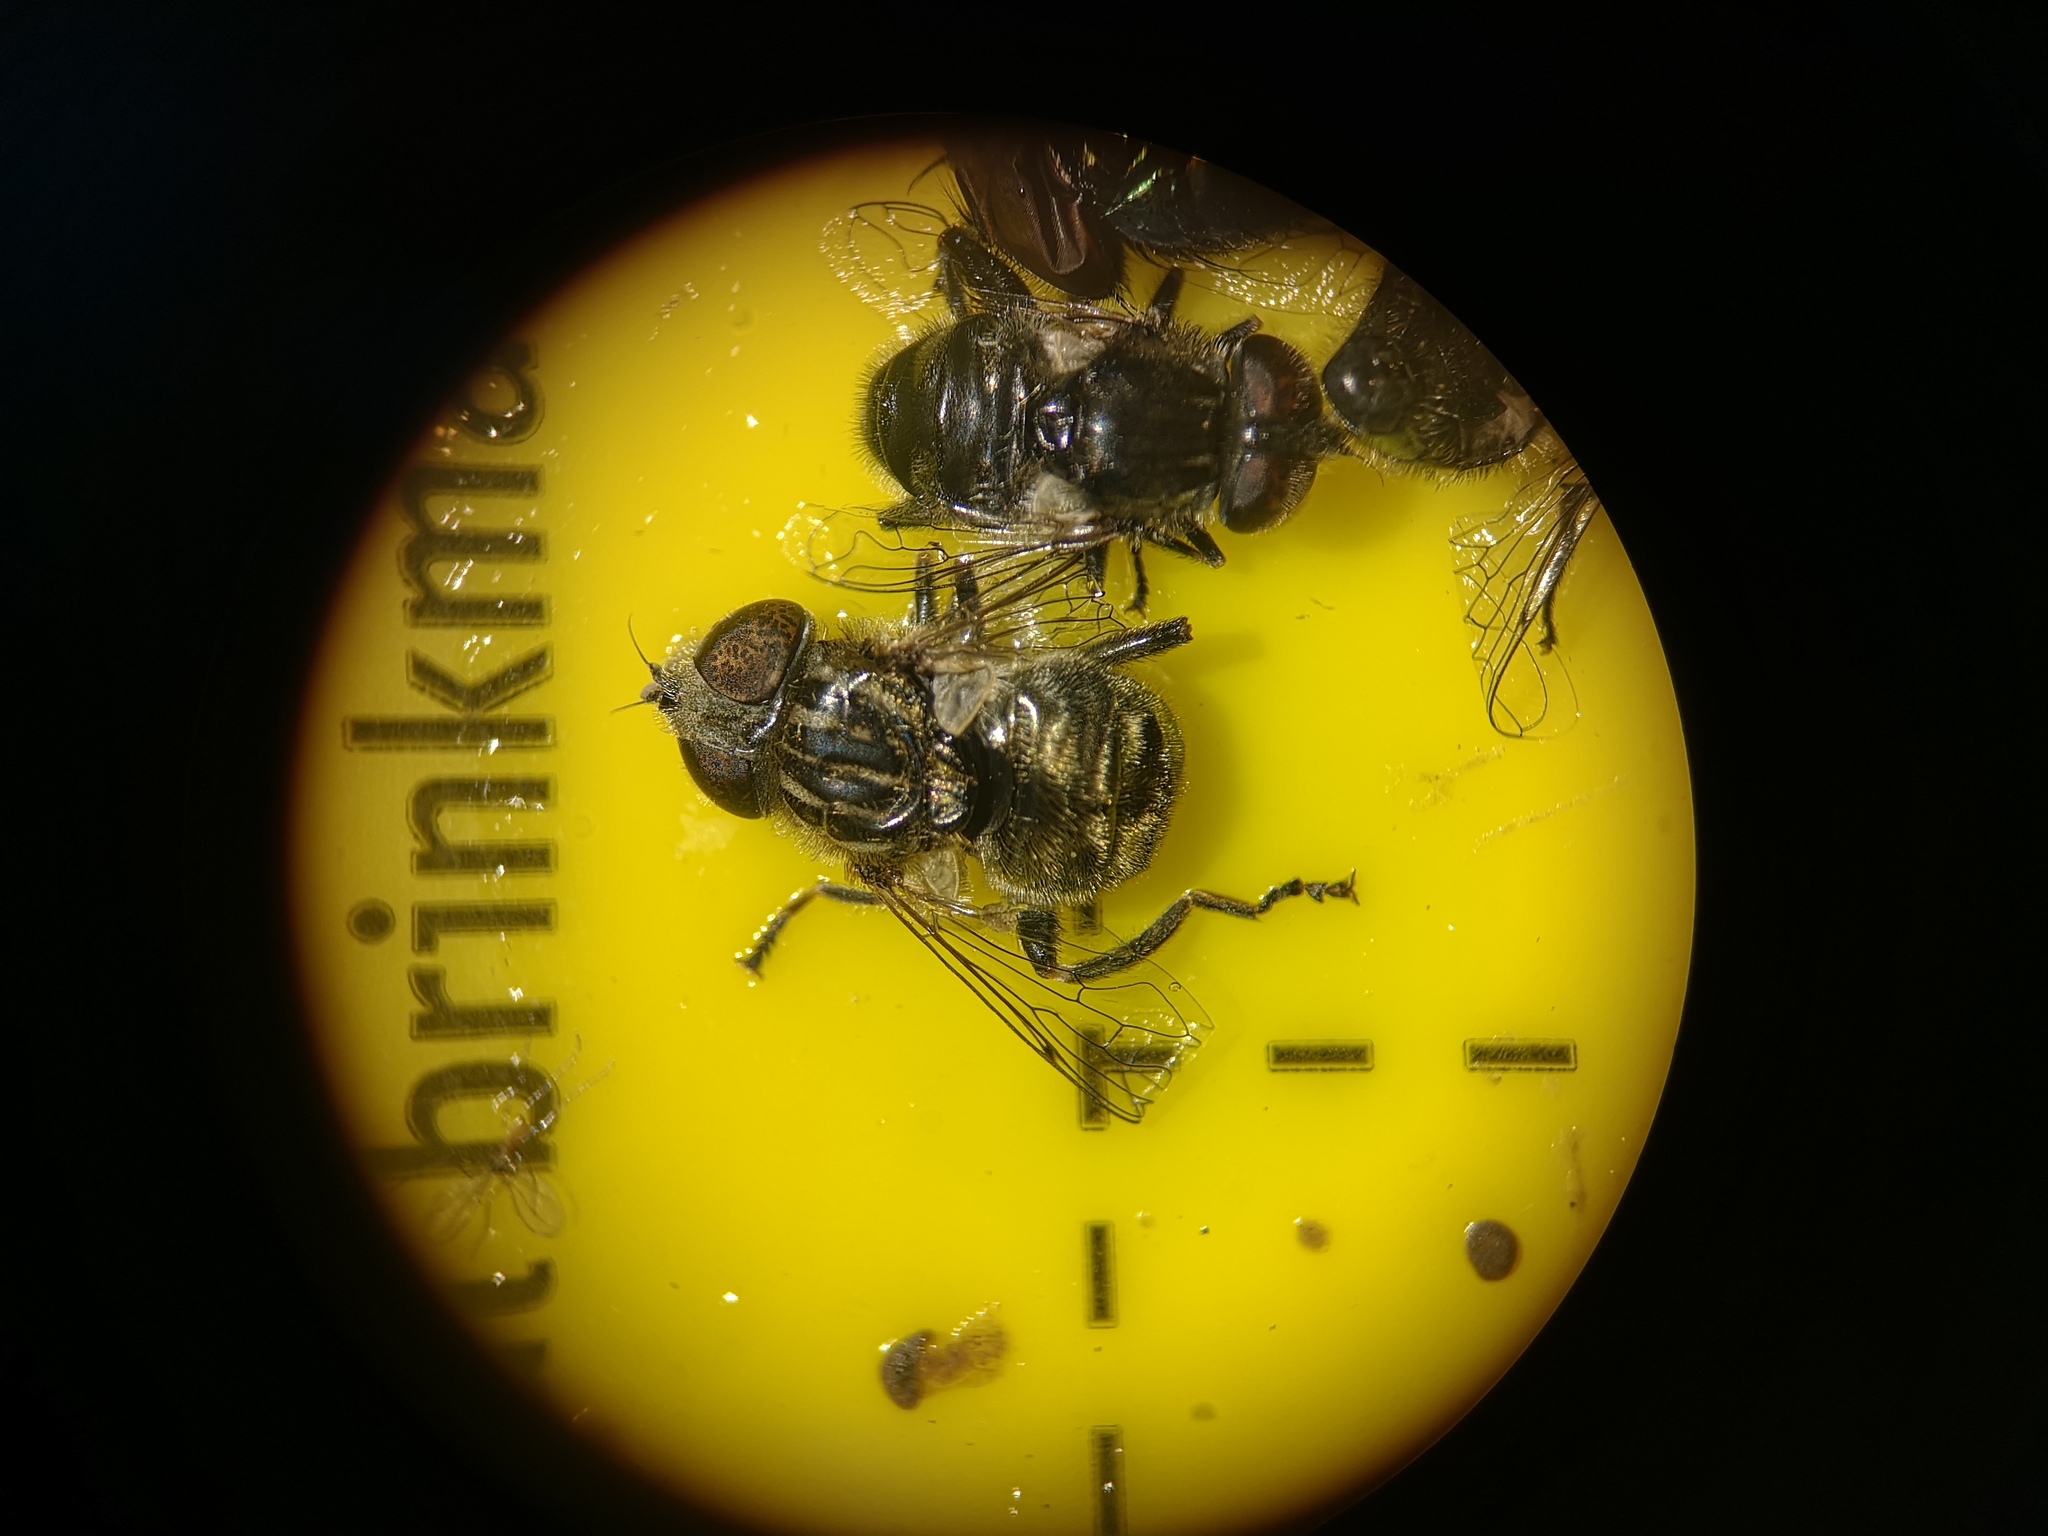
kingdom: Animalia
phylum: Arthropoda
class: Insecta
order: Diptera
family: Syrphidae
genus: Eristalinus
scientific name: Eristalinus sepulchralis
